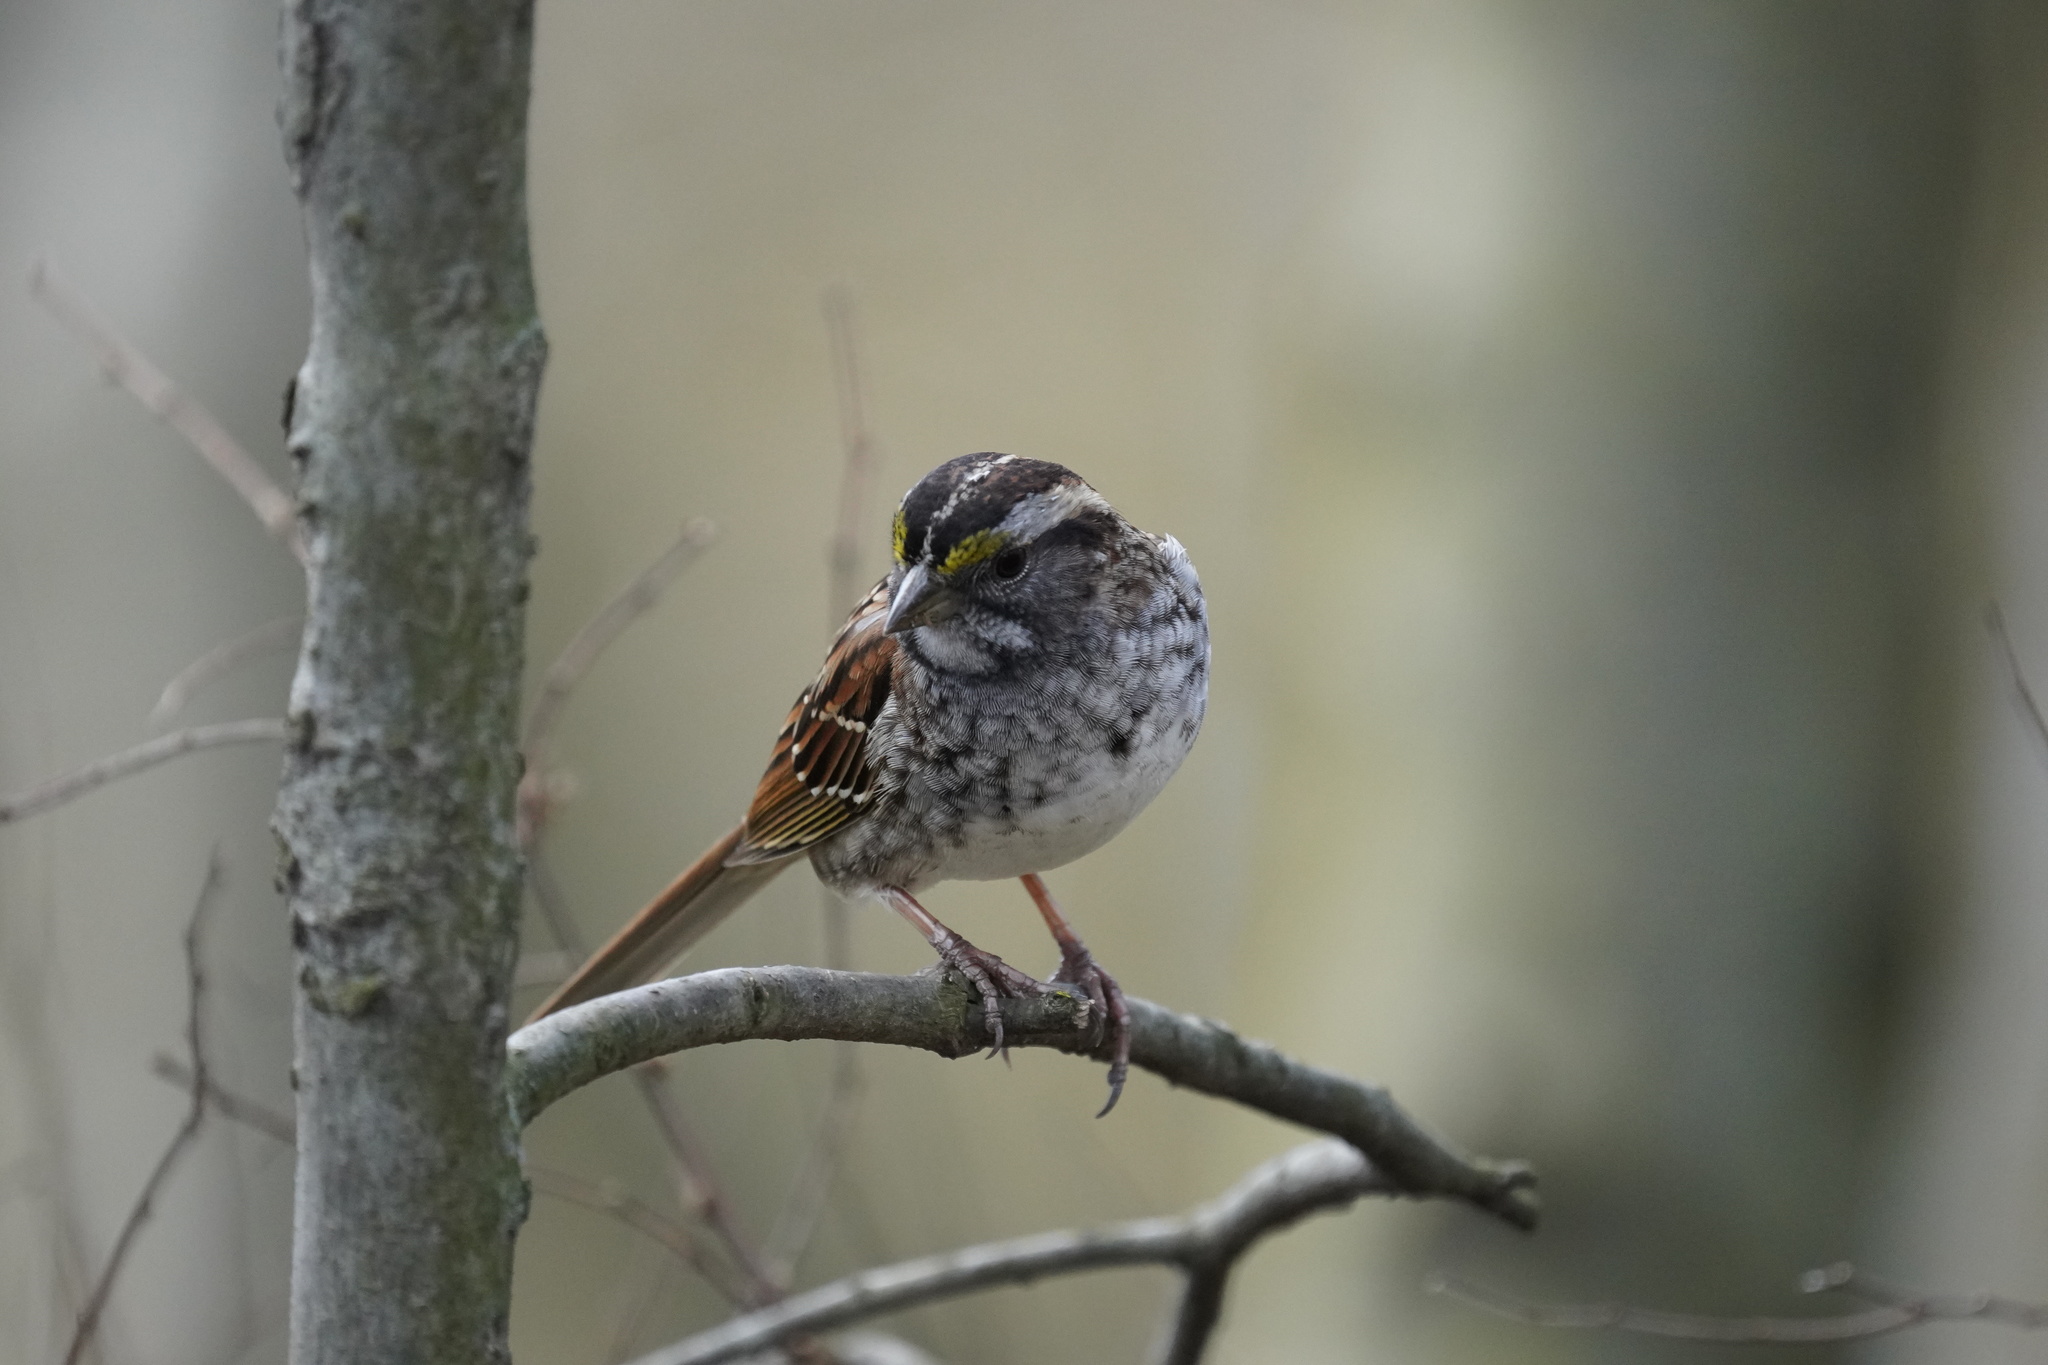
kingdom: Animalia
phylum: Chordata
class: Aves
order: Passeriformes
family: Passerellidae
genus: Zonotrichia
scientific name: Zonotrichia albicollis
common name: White-throated sparrow
